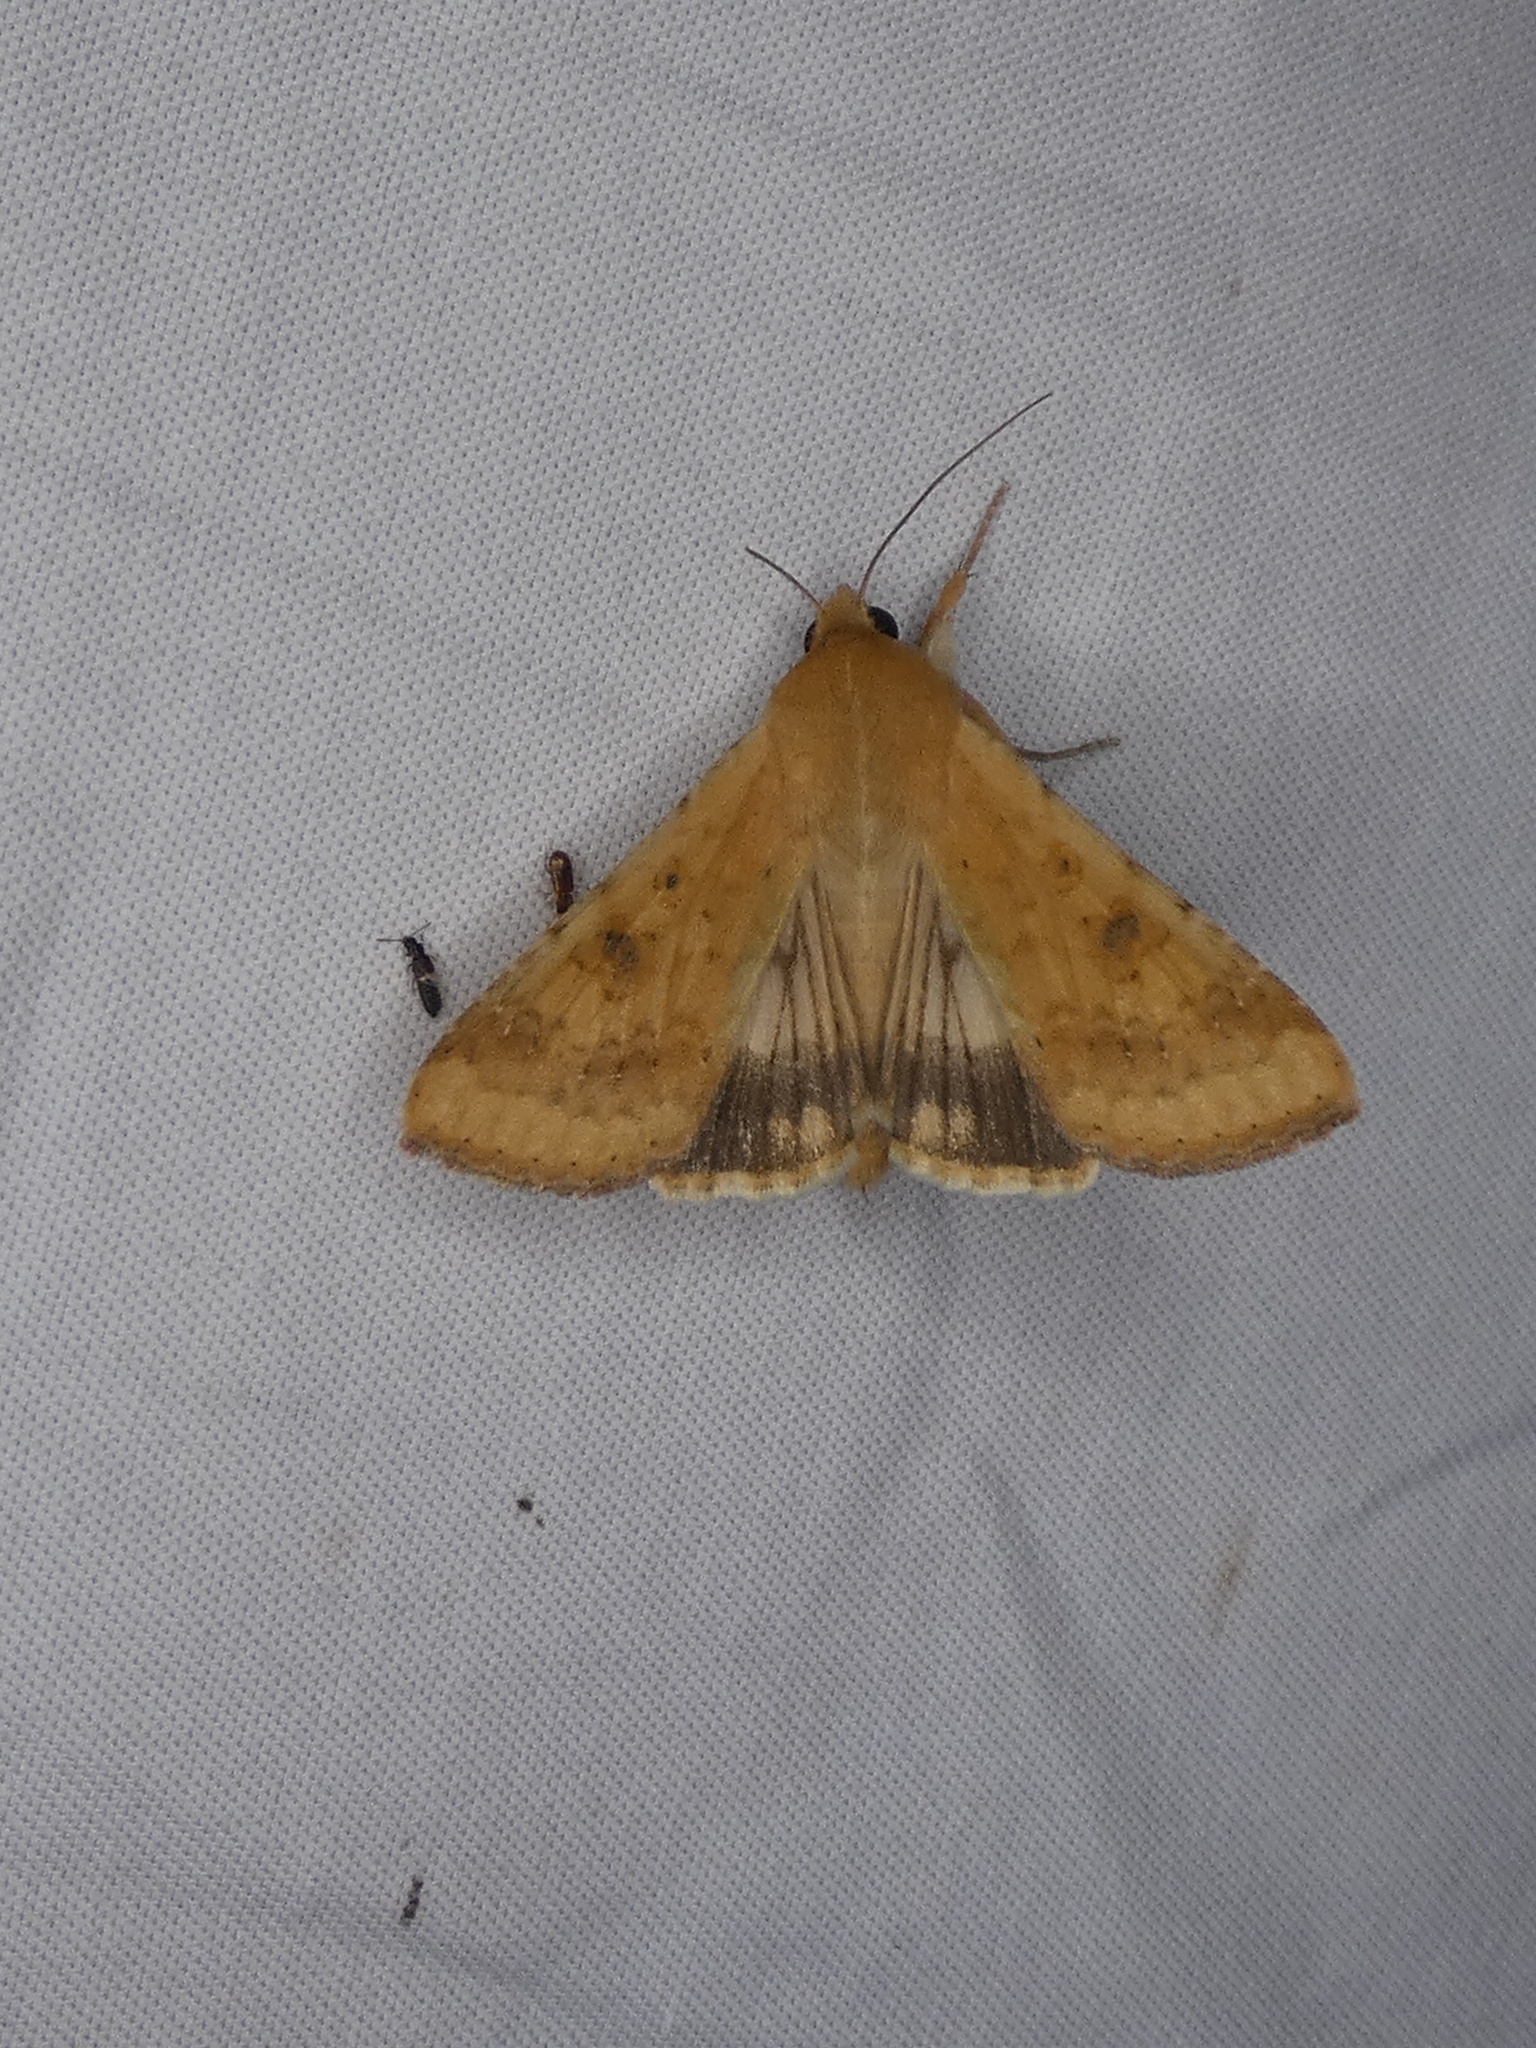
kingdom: Animalia
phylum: Arthropoda
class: Insecta
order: Lepidoptera
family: Noctuidae
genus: Helicoverpa
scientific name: Helicoverpa zea
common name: Bollworm
